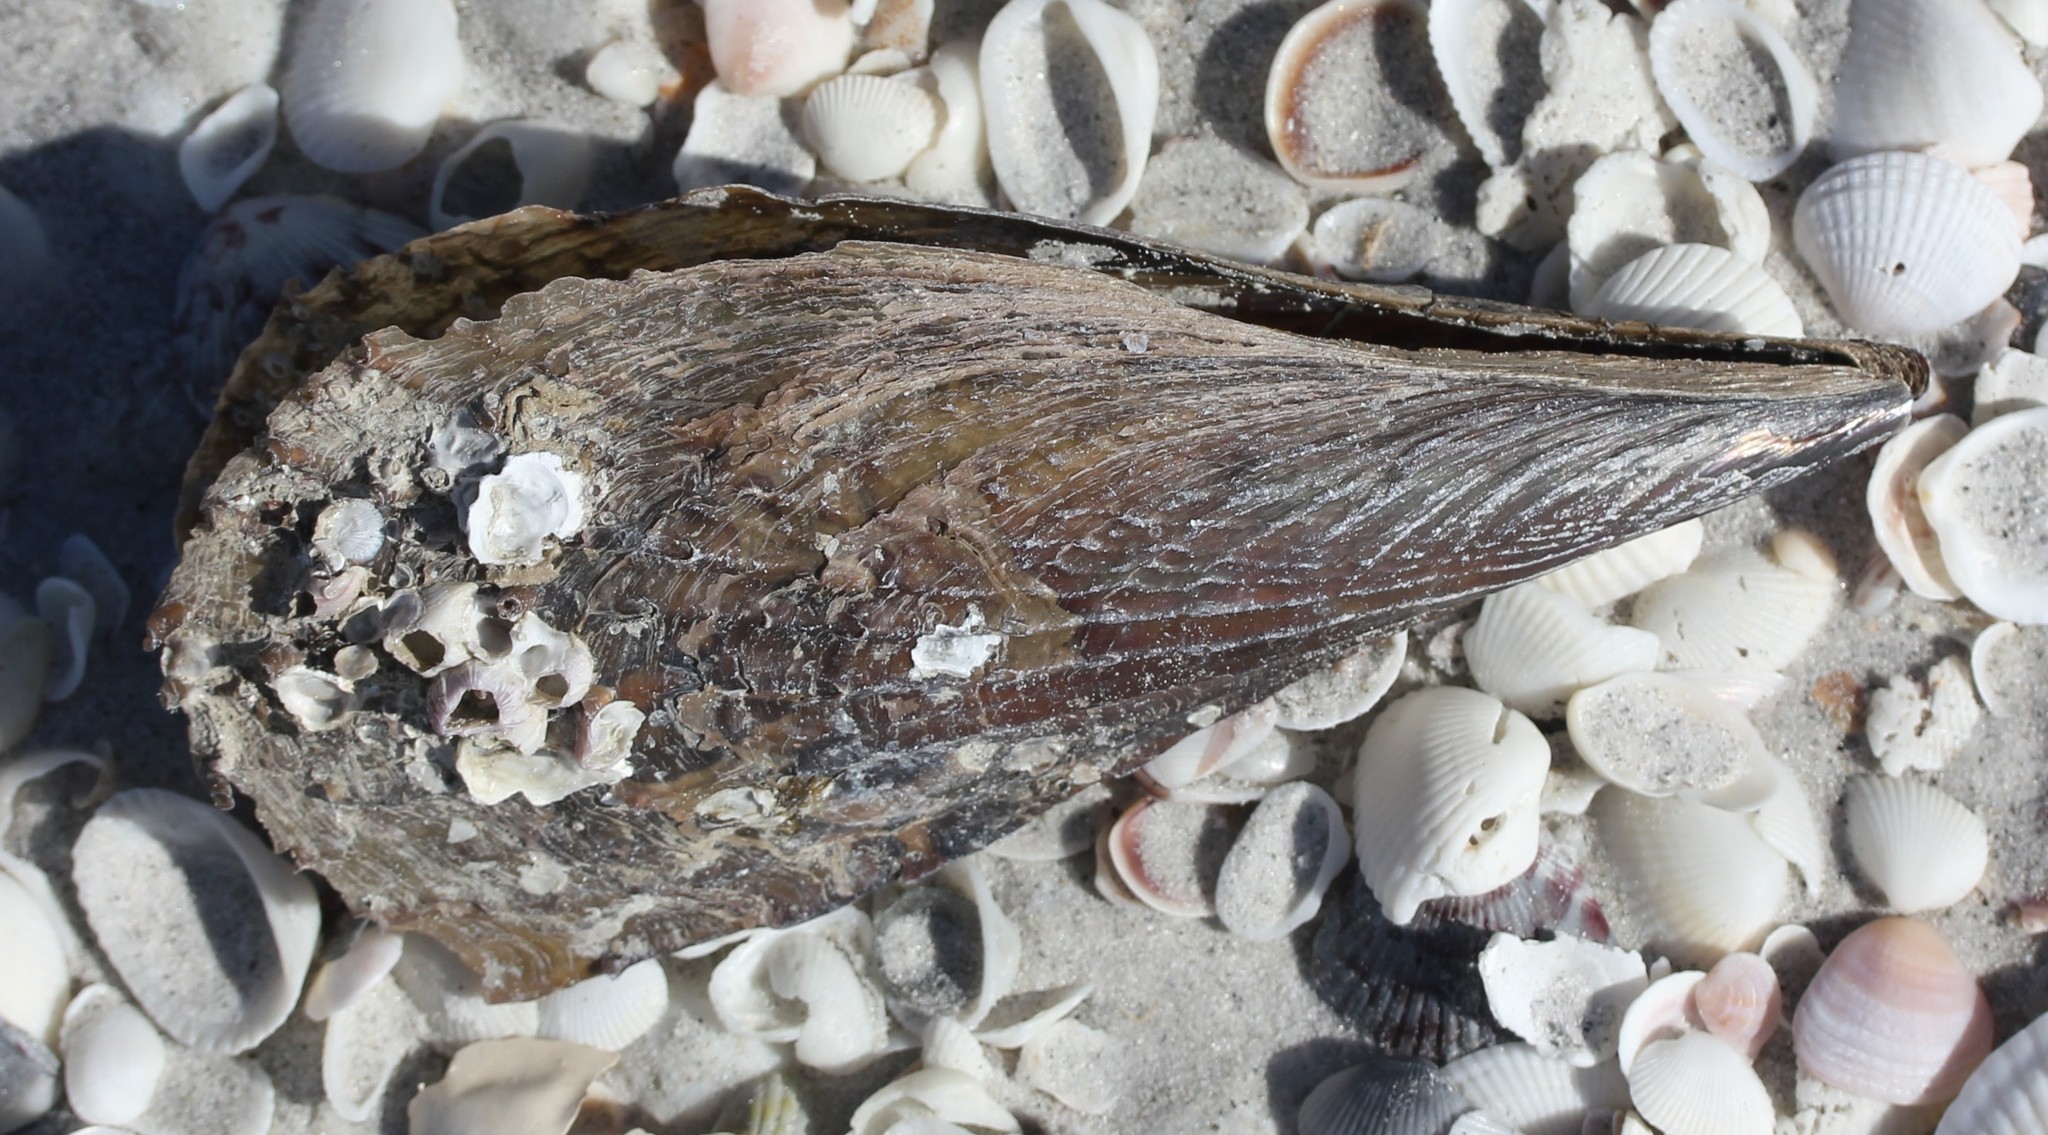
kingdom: Animalia
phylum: Mollusca
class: Bivalvia
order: Ostreida
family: Pinnidae
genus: Atrina
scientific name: Atrina rigida
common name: Stiff penshell
